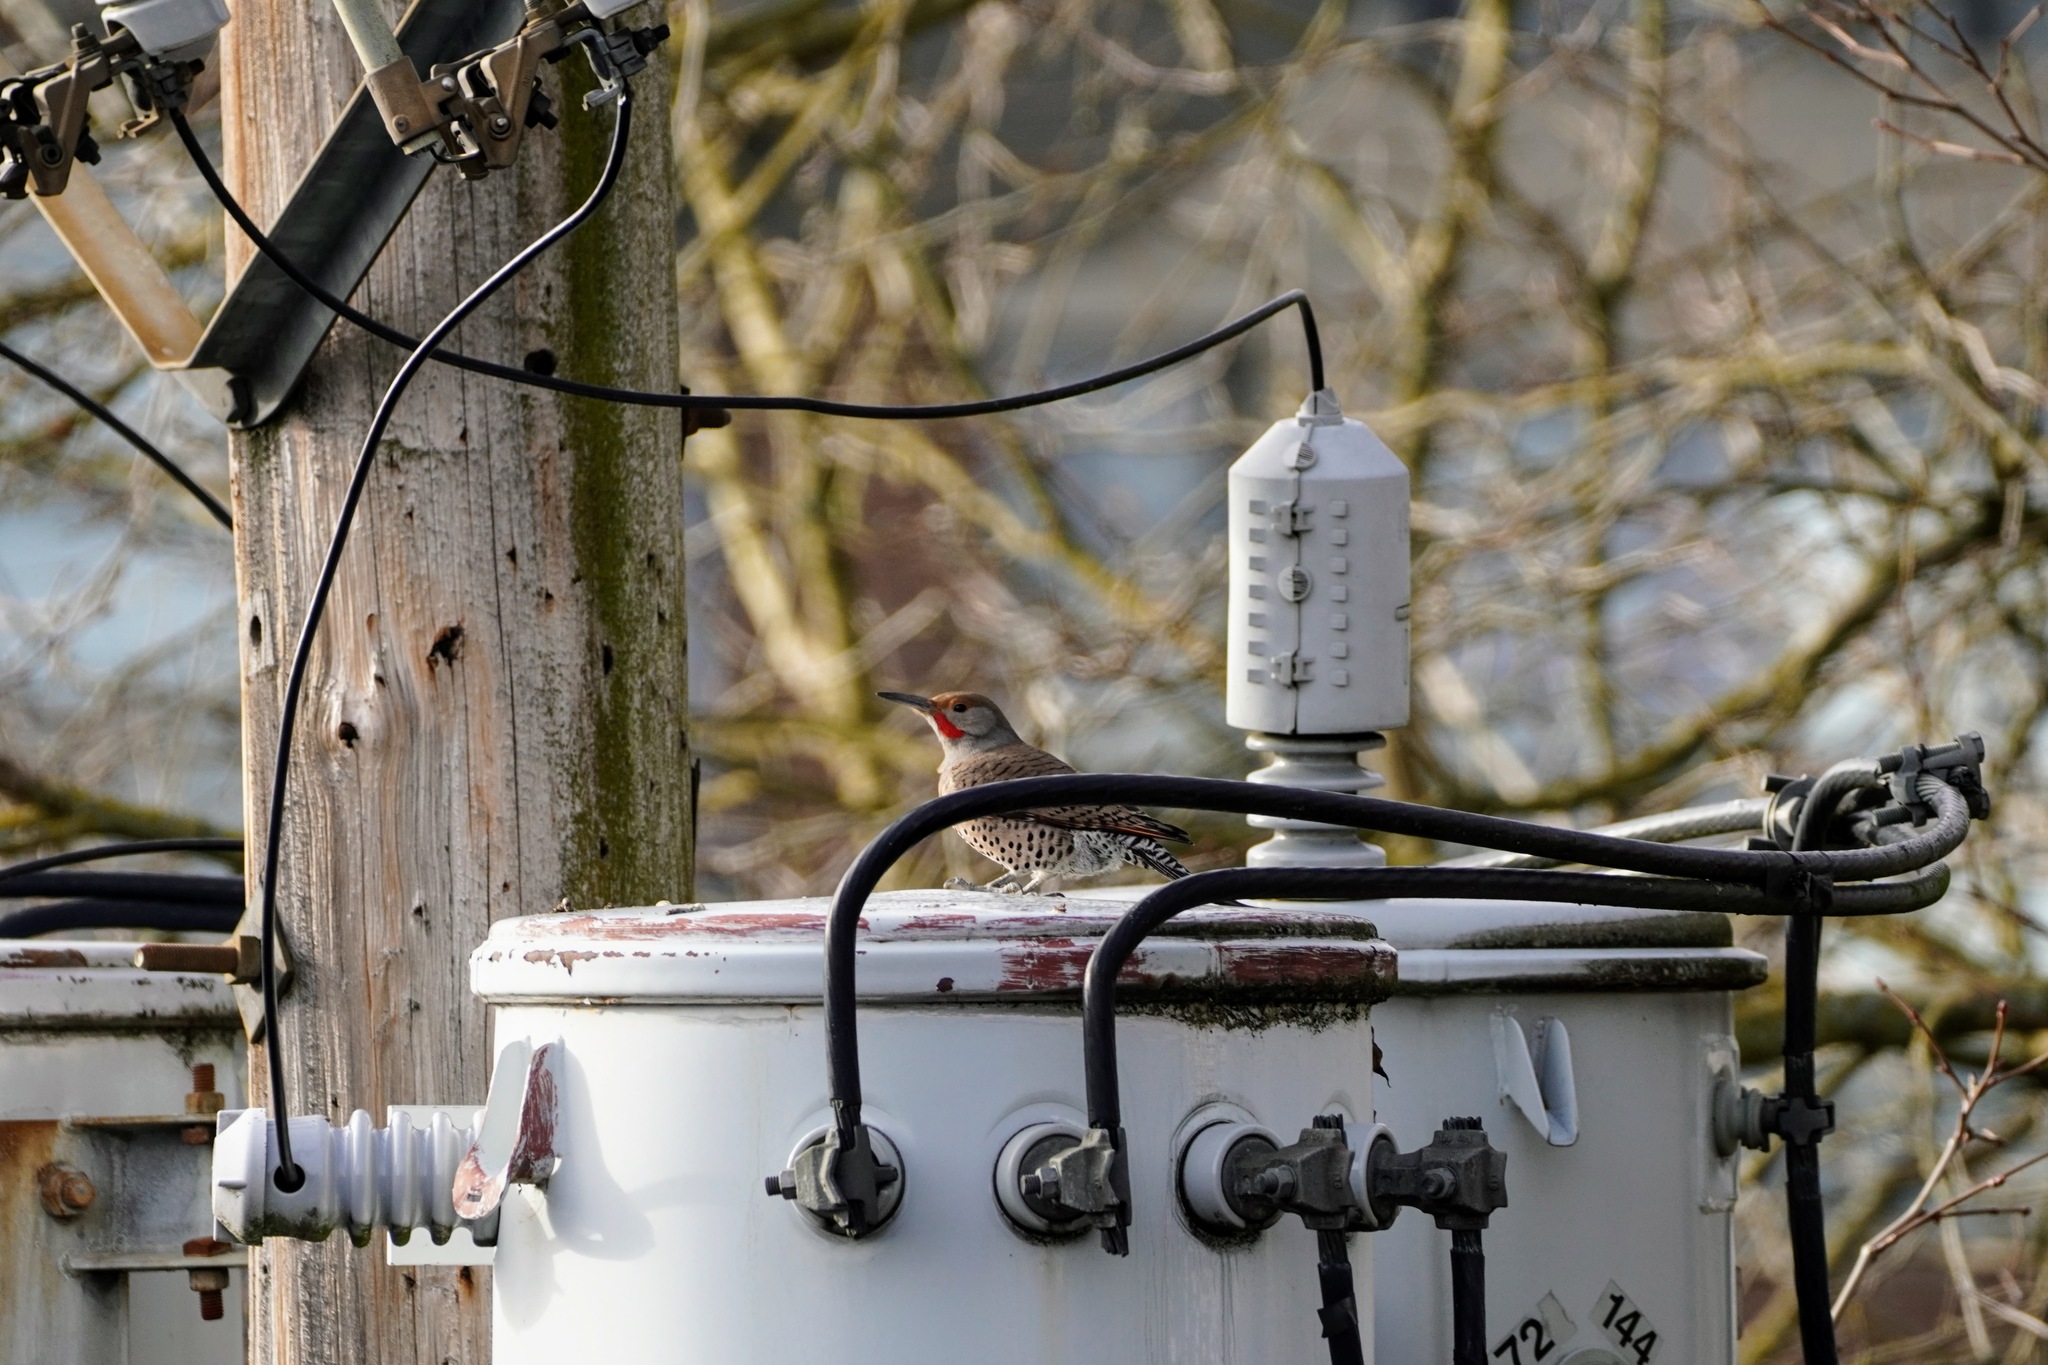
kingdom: Animalia
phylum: Chordata
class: Aves
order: Piciformes
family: Picidae
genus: Colaptes
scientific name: Colaptes auratus
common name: Northern flicker
